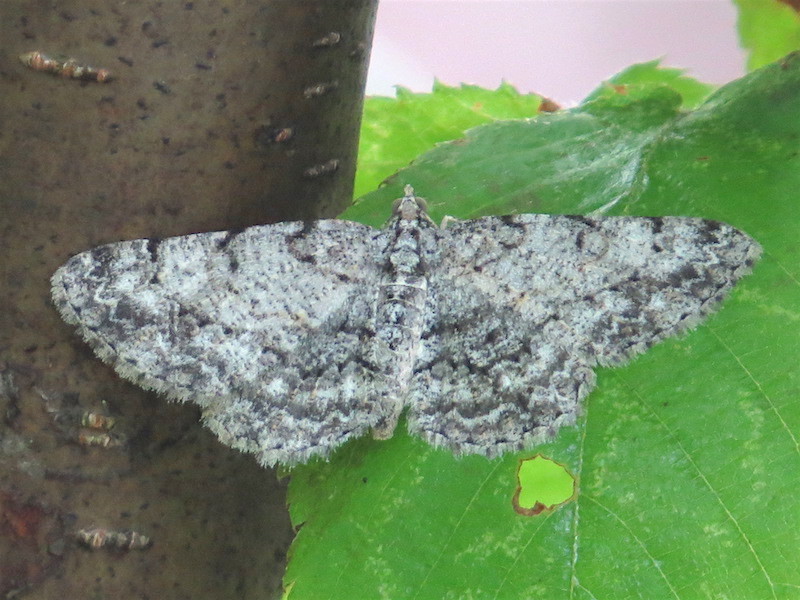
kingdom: Animalia
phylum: Arthropoda
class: Insecta
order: Lepidoptera
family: Geometridae
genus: Protoboarmia
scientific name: Protoboarmia porcelaria
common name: Porcelain gray
